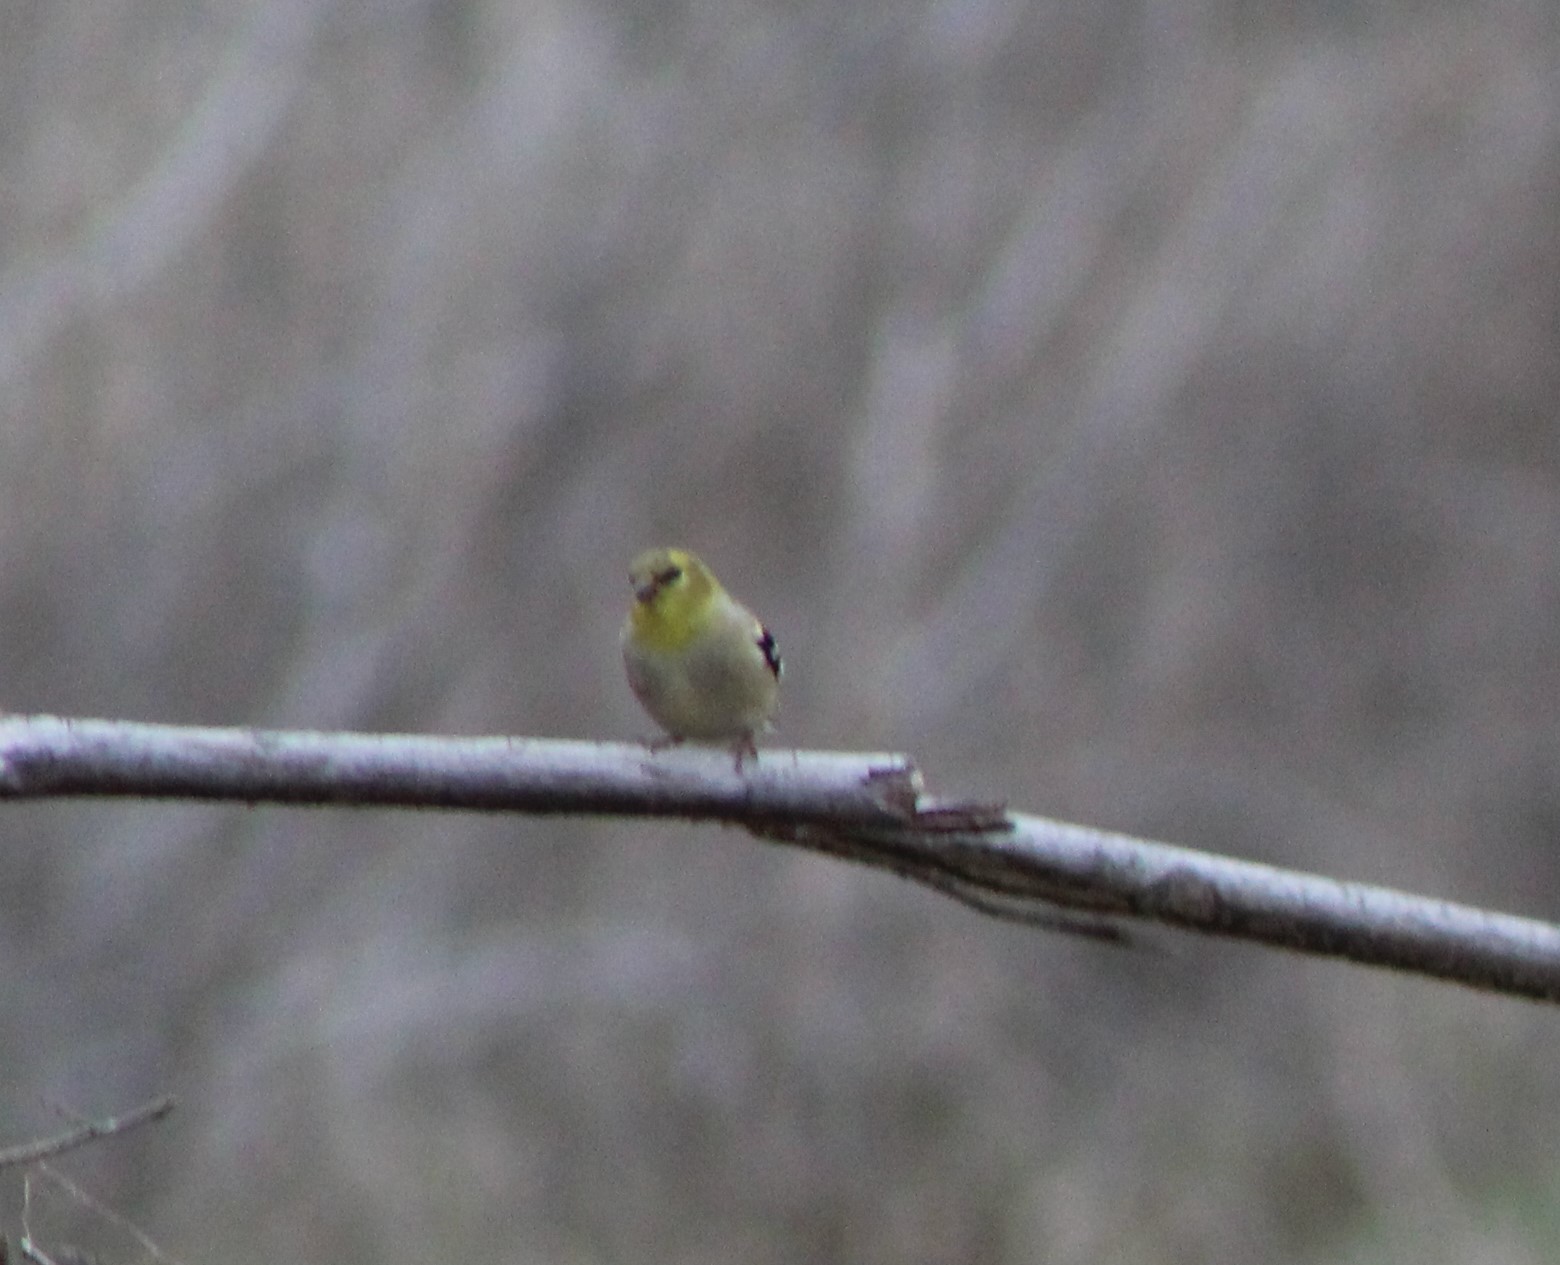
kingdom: Animalia
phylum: Chordata
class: Aves
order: Passeriformes
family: Fringillidae
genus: Spinus
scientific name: Spinus tristis
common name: American goldfinch
